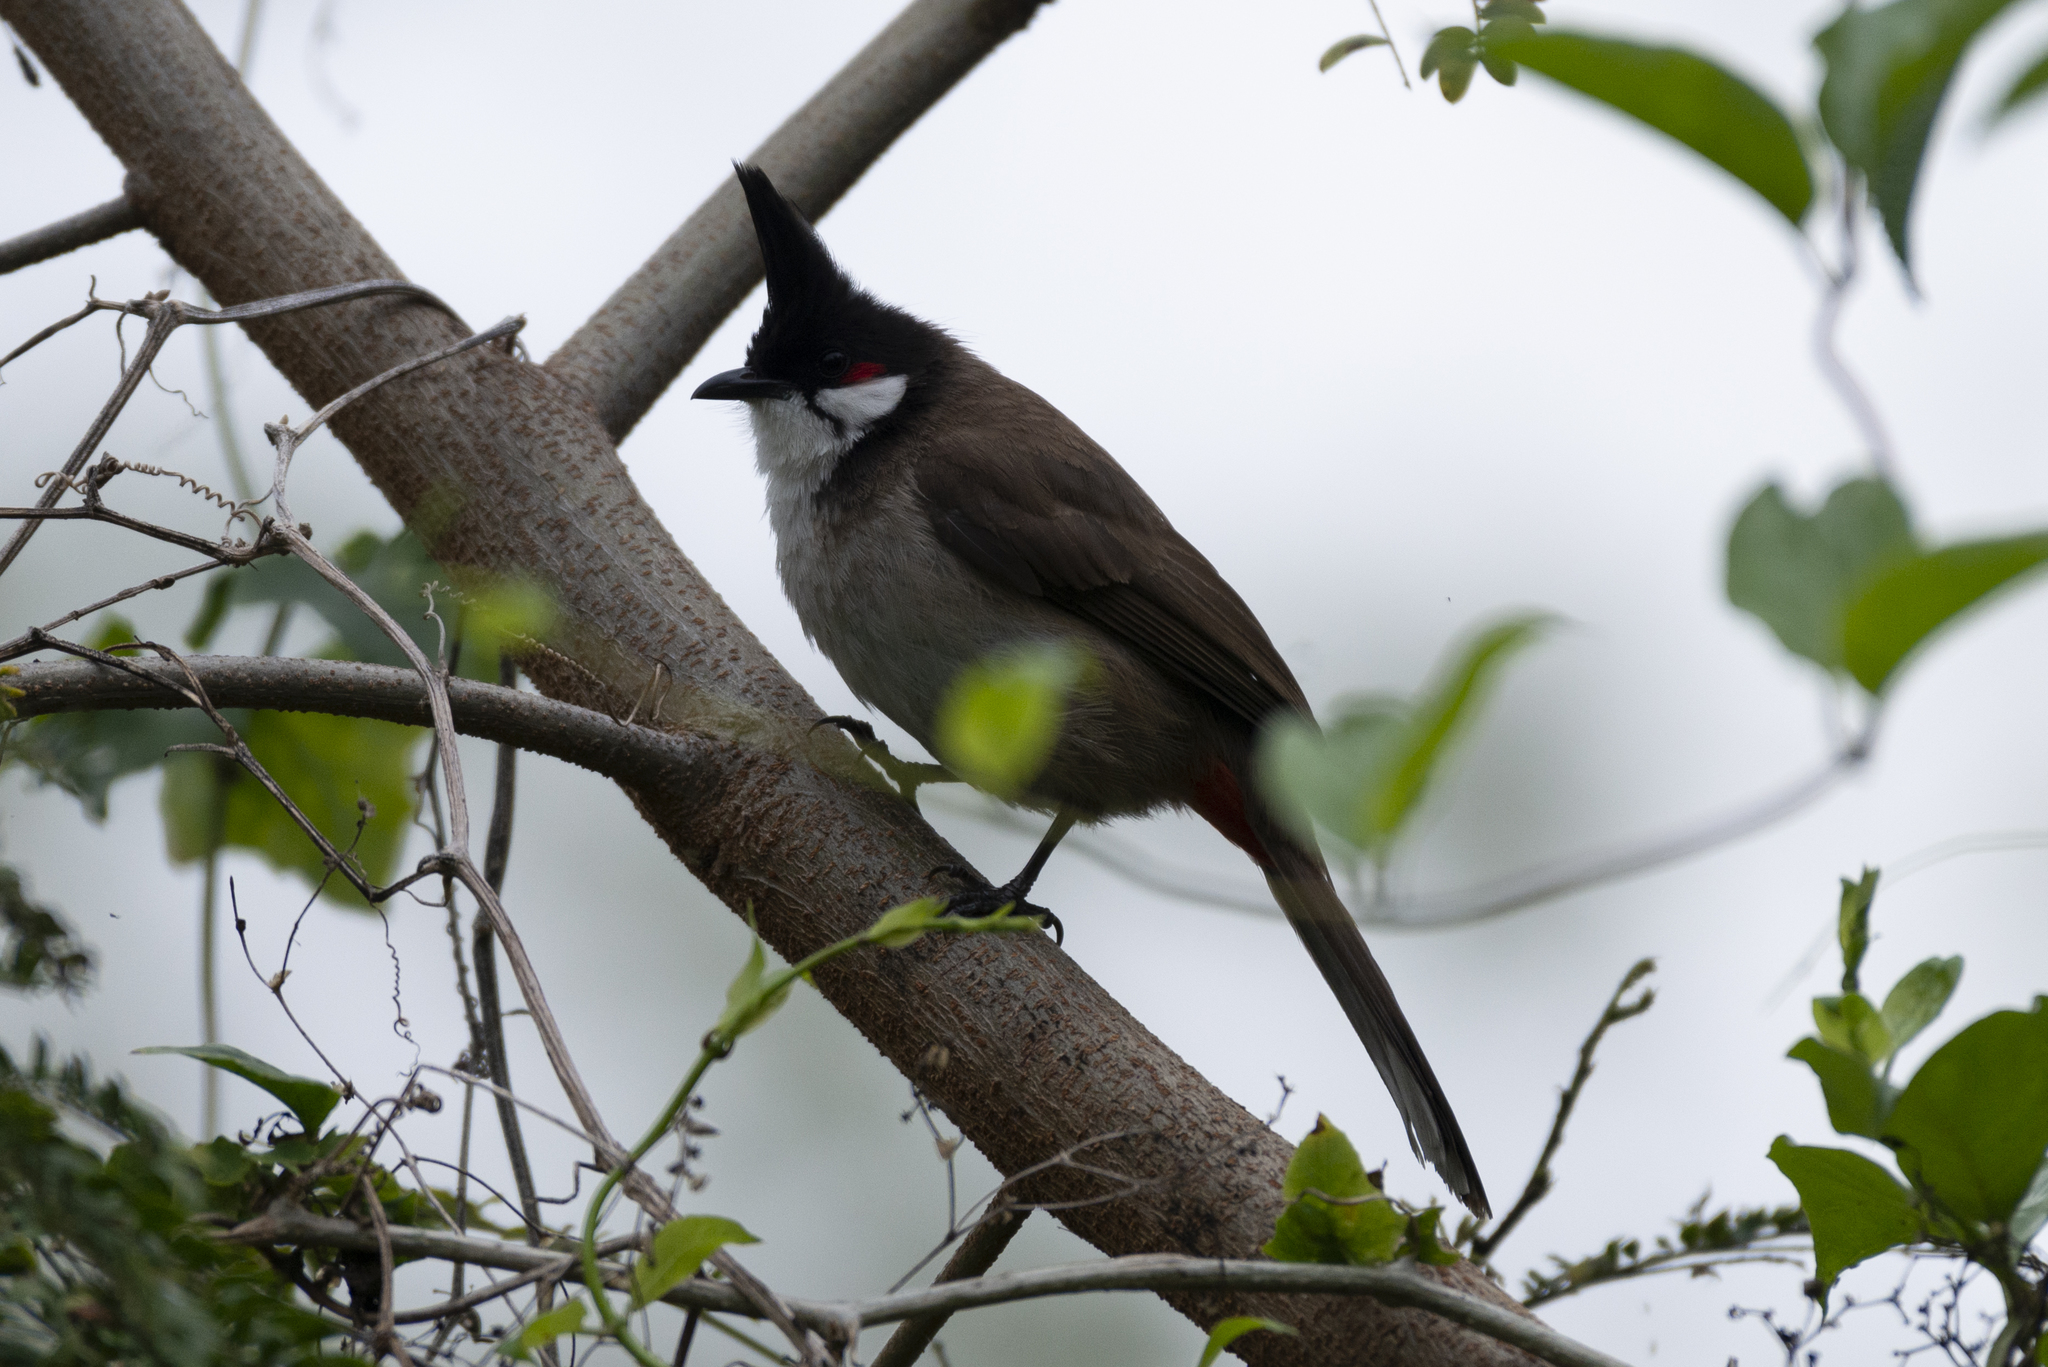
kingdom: Animalia
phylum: Chordata
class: Aves
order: Passeriformes
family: Pycnonotidae
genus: Pycnonotus
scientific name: Pycnonotus jocosus
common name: Red-whiskered bulbul
